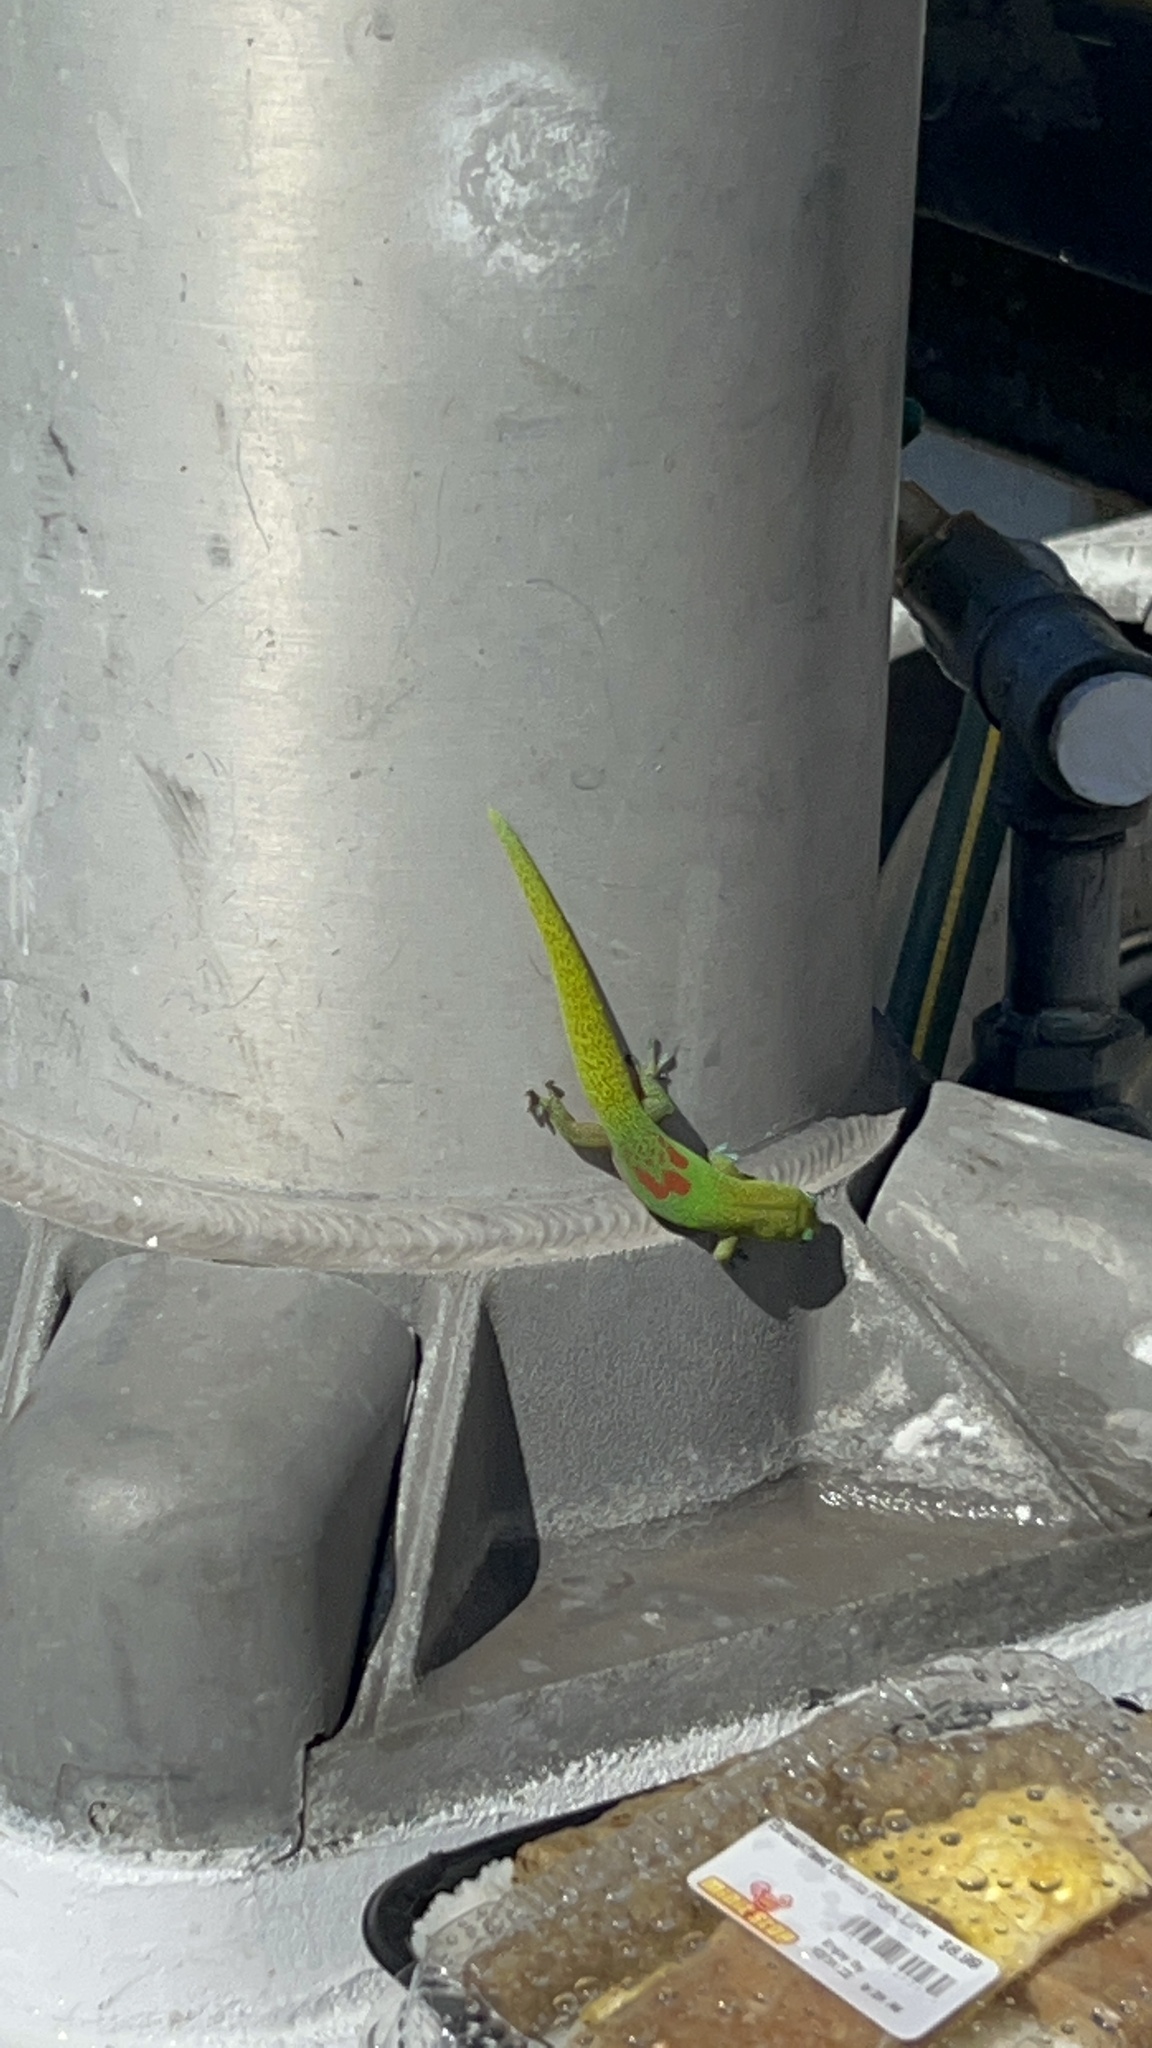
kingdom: Animalia
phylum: Chordata
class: Squamata
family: Gekkonidae
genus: Phelsuma
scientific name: Phelsuma laticauda
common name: Gold dust day gecko
